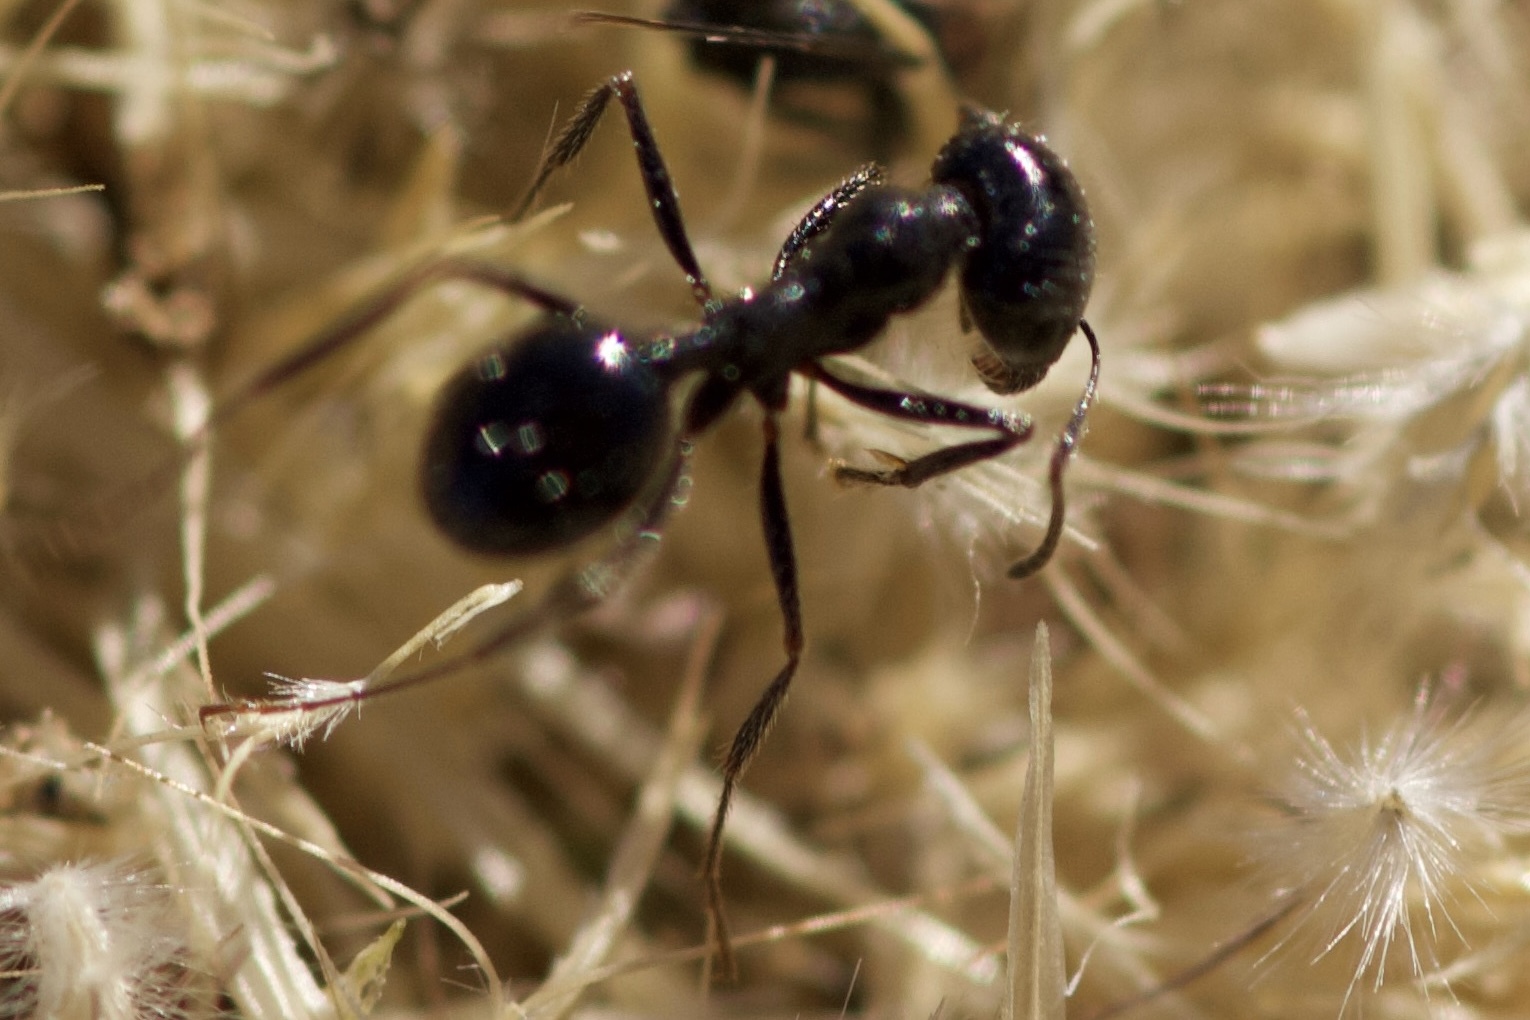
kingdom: Animalia
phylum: Arthropoda
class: Insecta
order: Hymenoptera
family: Formicidae
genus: Messor
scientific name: Messor pergandei
